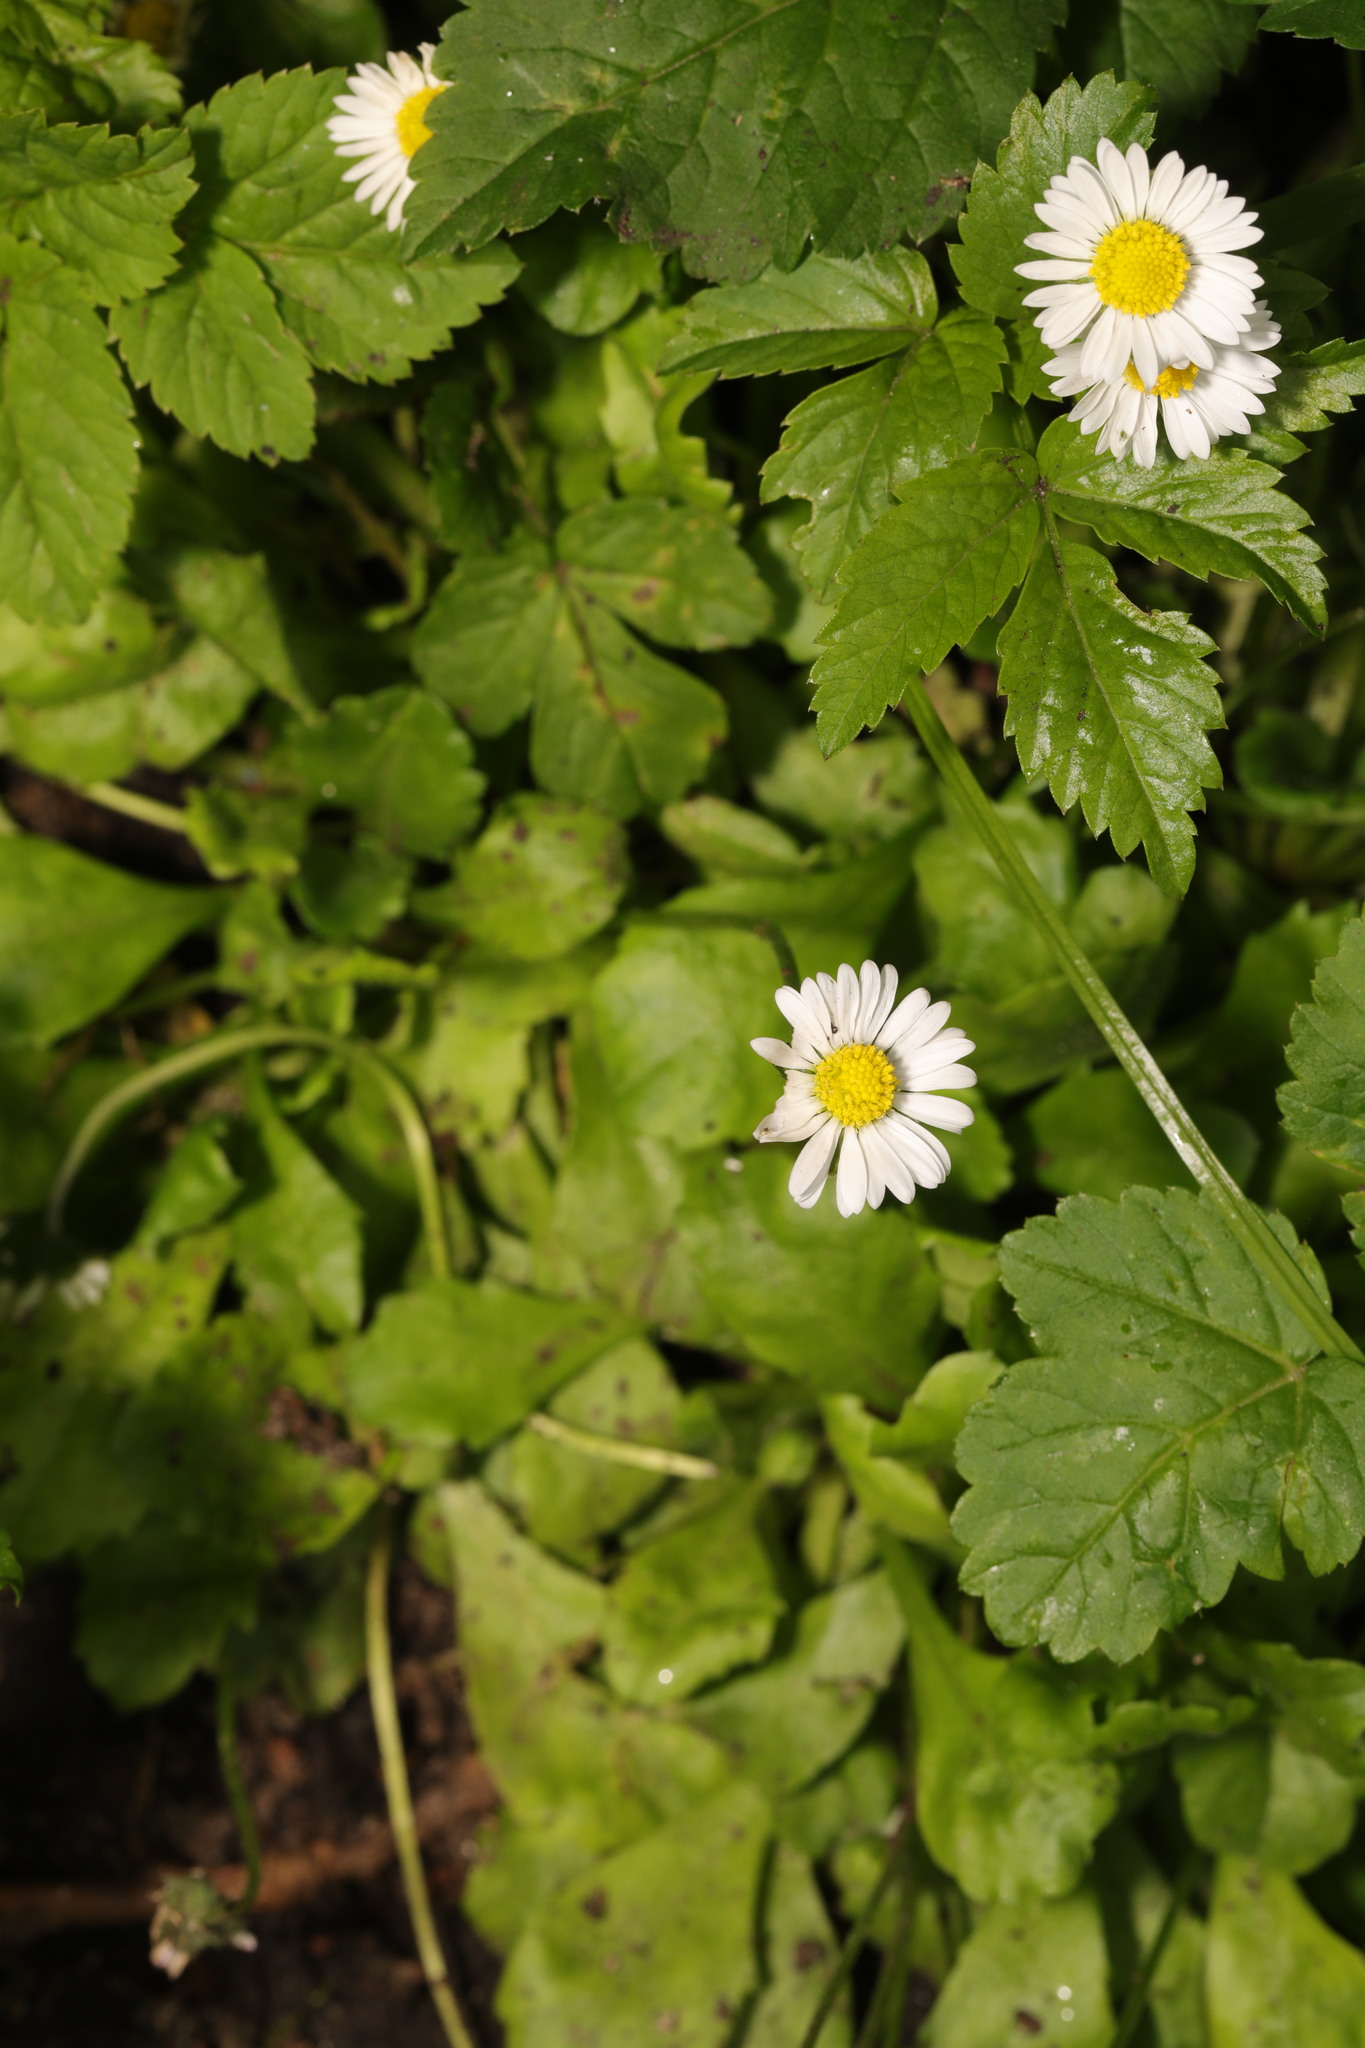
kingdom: Plantae
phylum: Tracheophyta
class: Magnoliopsida
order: Asterales
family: Asteraceae
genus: Bellis
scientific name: Bellis perennis
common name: Lawndaisy
